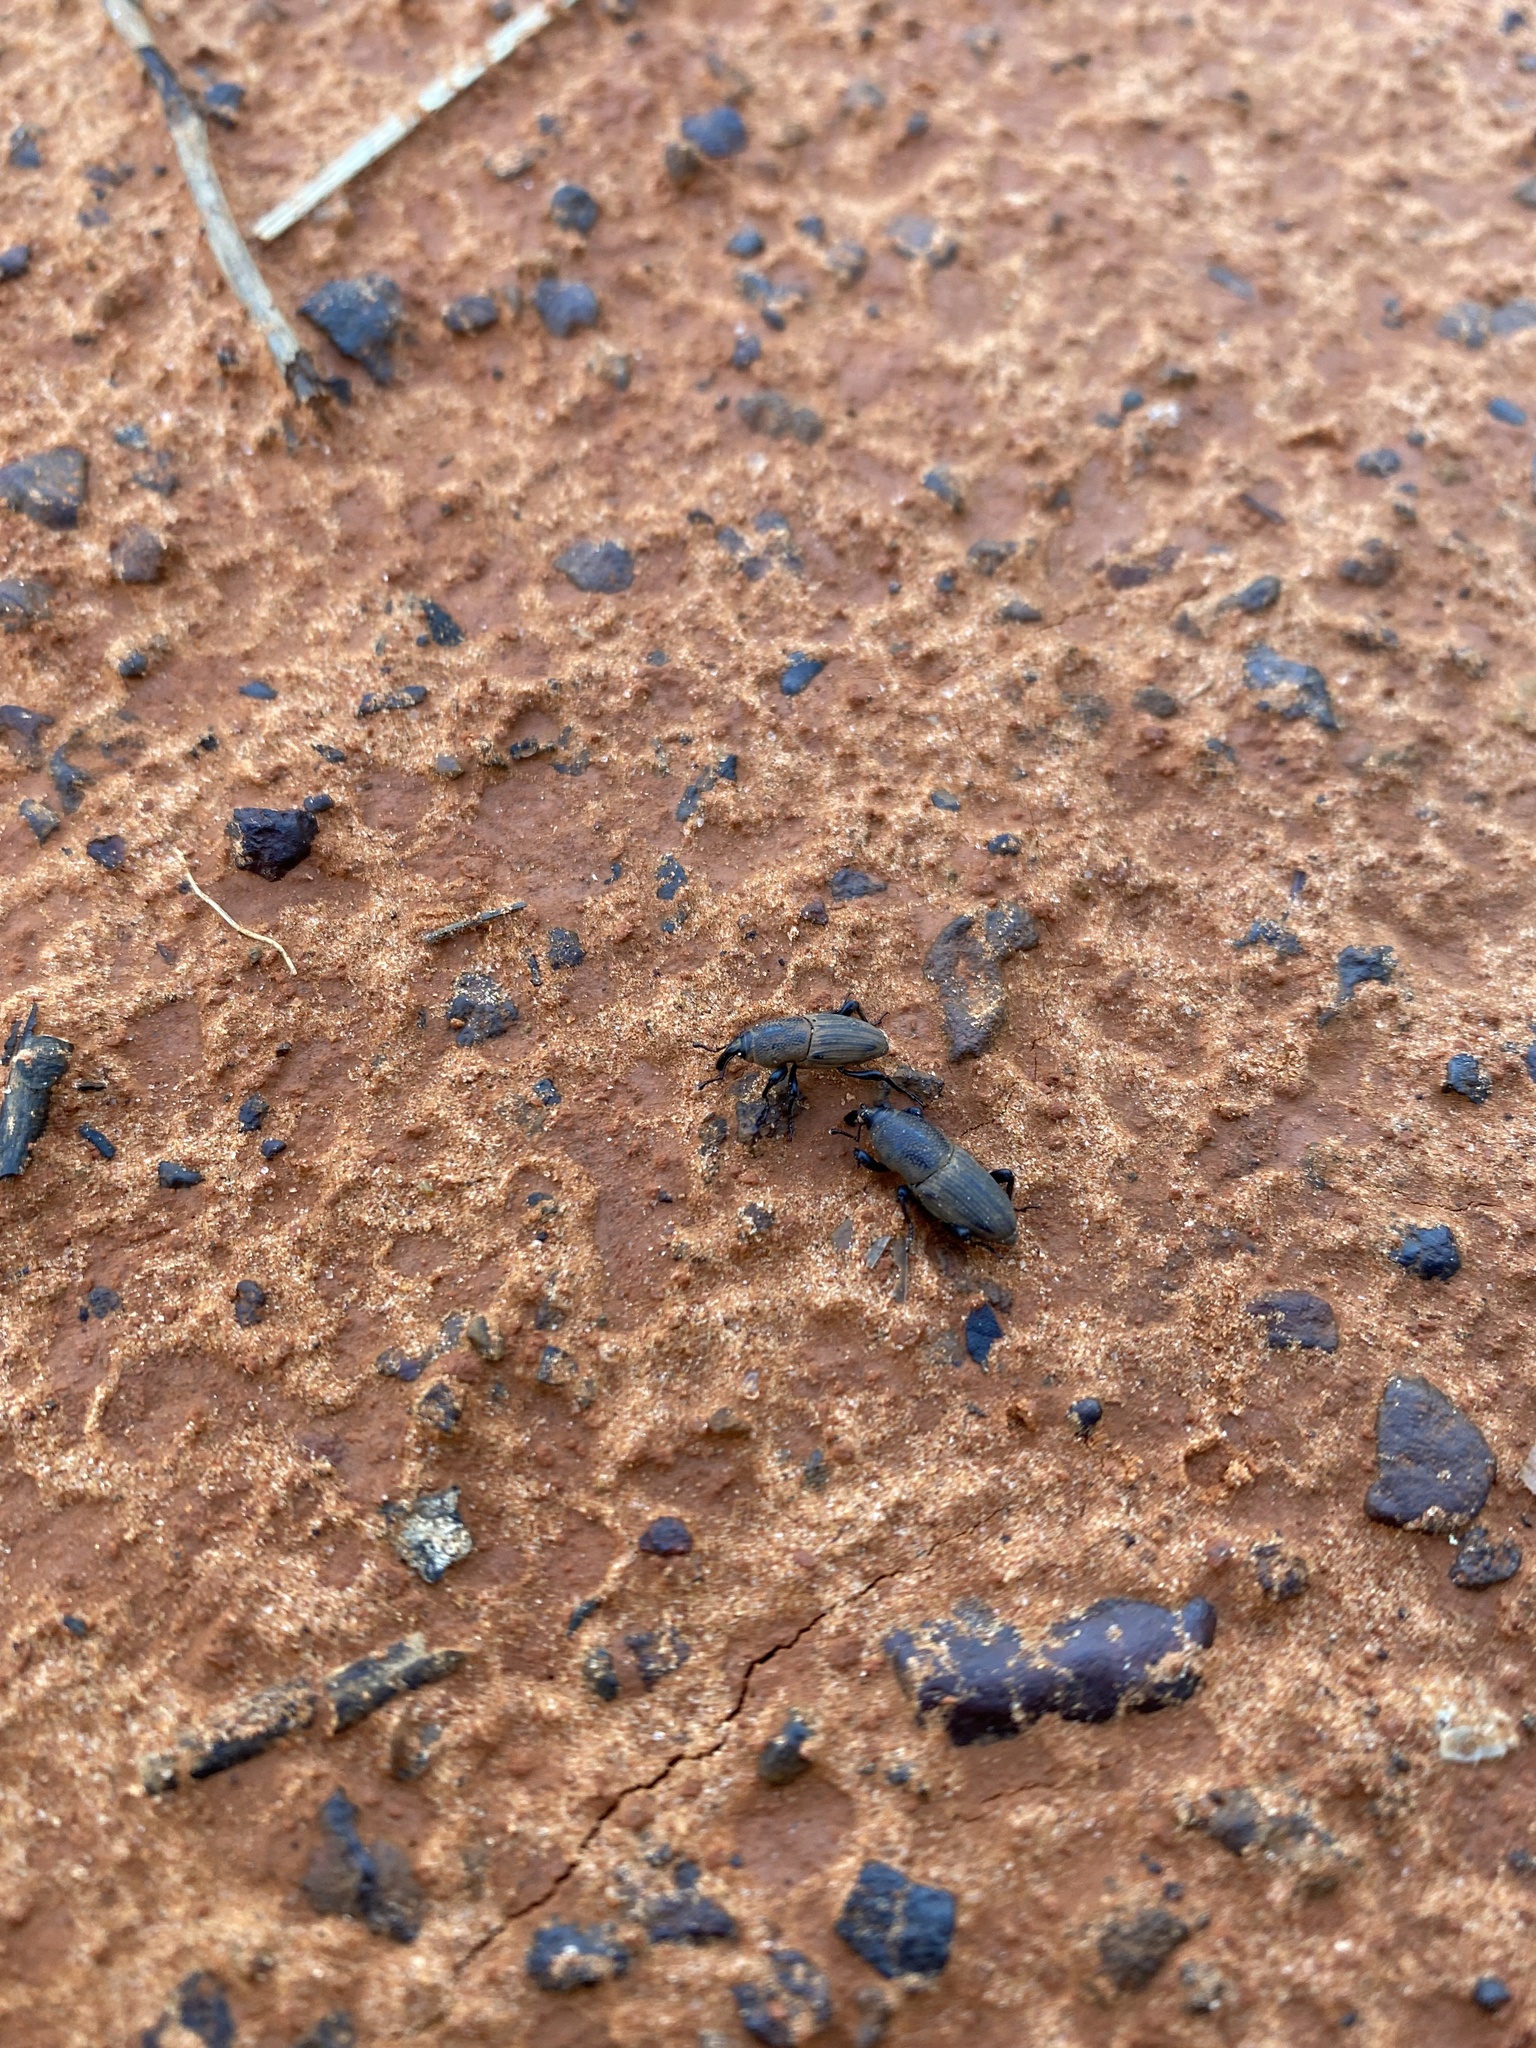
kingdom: Animalia
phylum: Arthropoda
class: Insecta
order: Coleoptera
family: Dryophthoridae
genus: Sphenophorus
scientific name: Sphenophorus coesifrons
